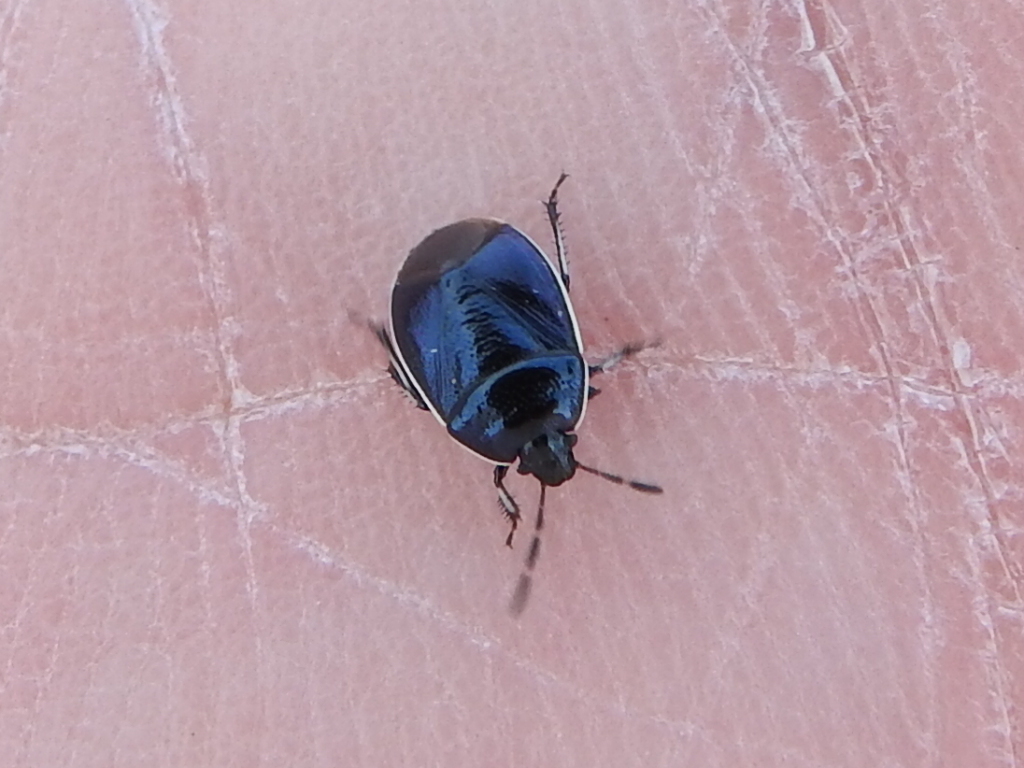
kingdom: Animalia
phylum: Arthropoda
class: Insecta
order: Hemiptera
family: Cydnidae
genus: Sehirus
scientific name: Sehirus cinctus
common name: White-margined burrower bug
